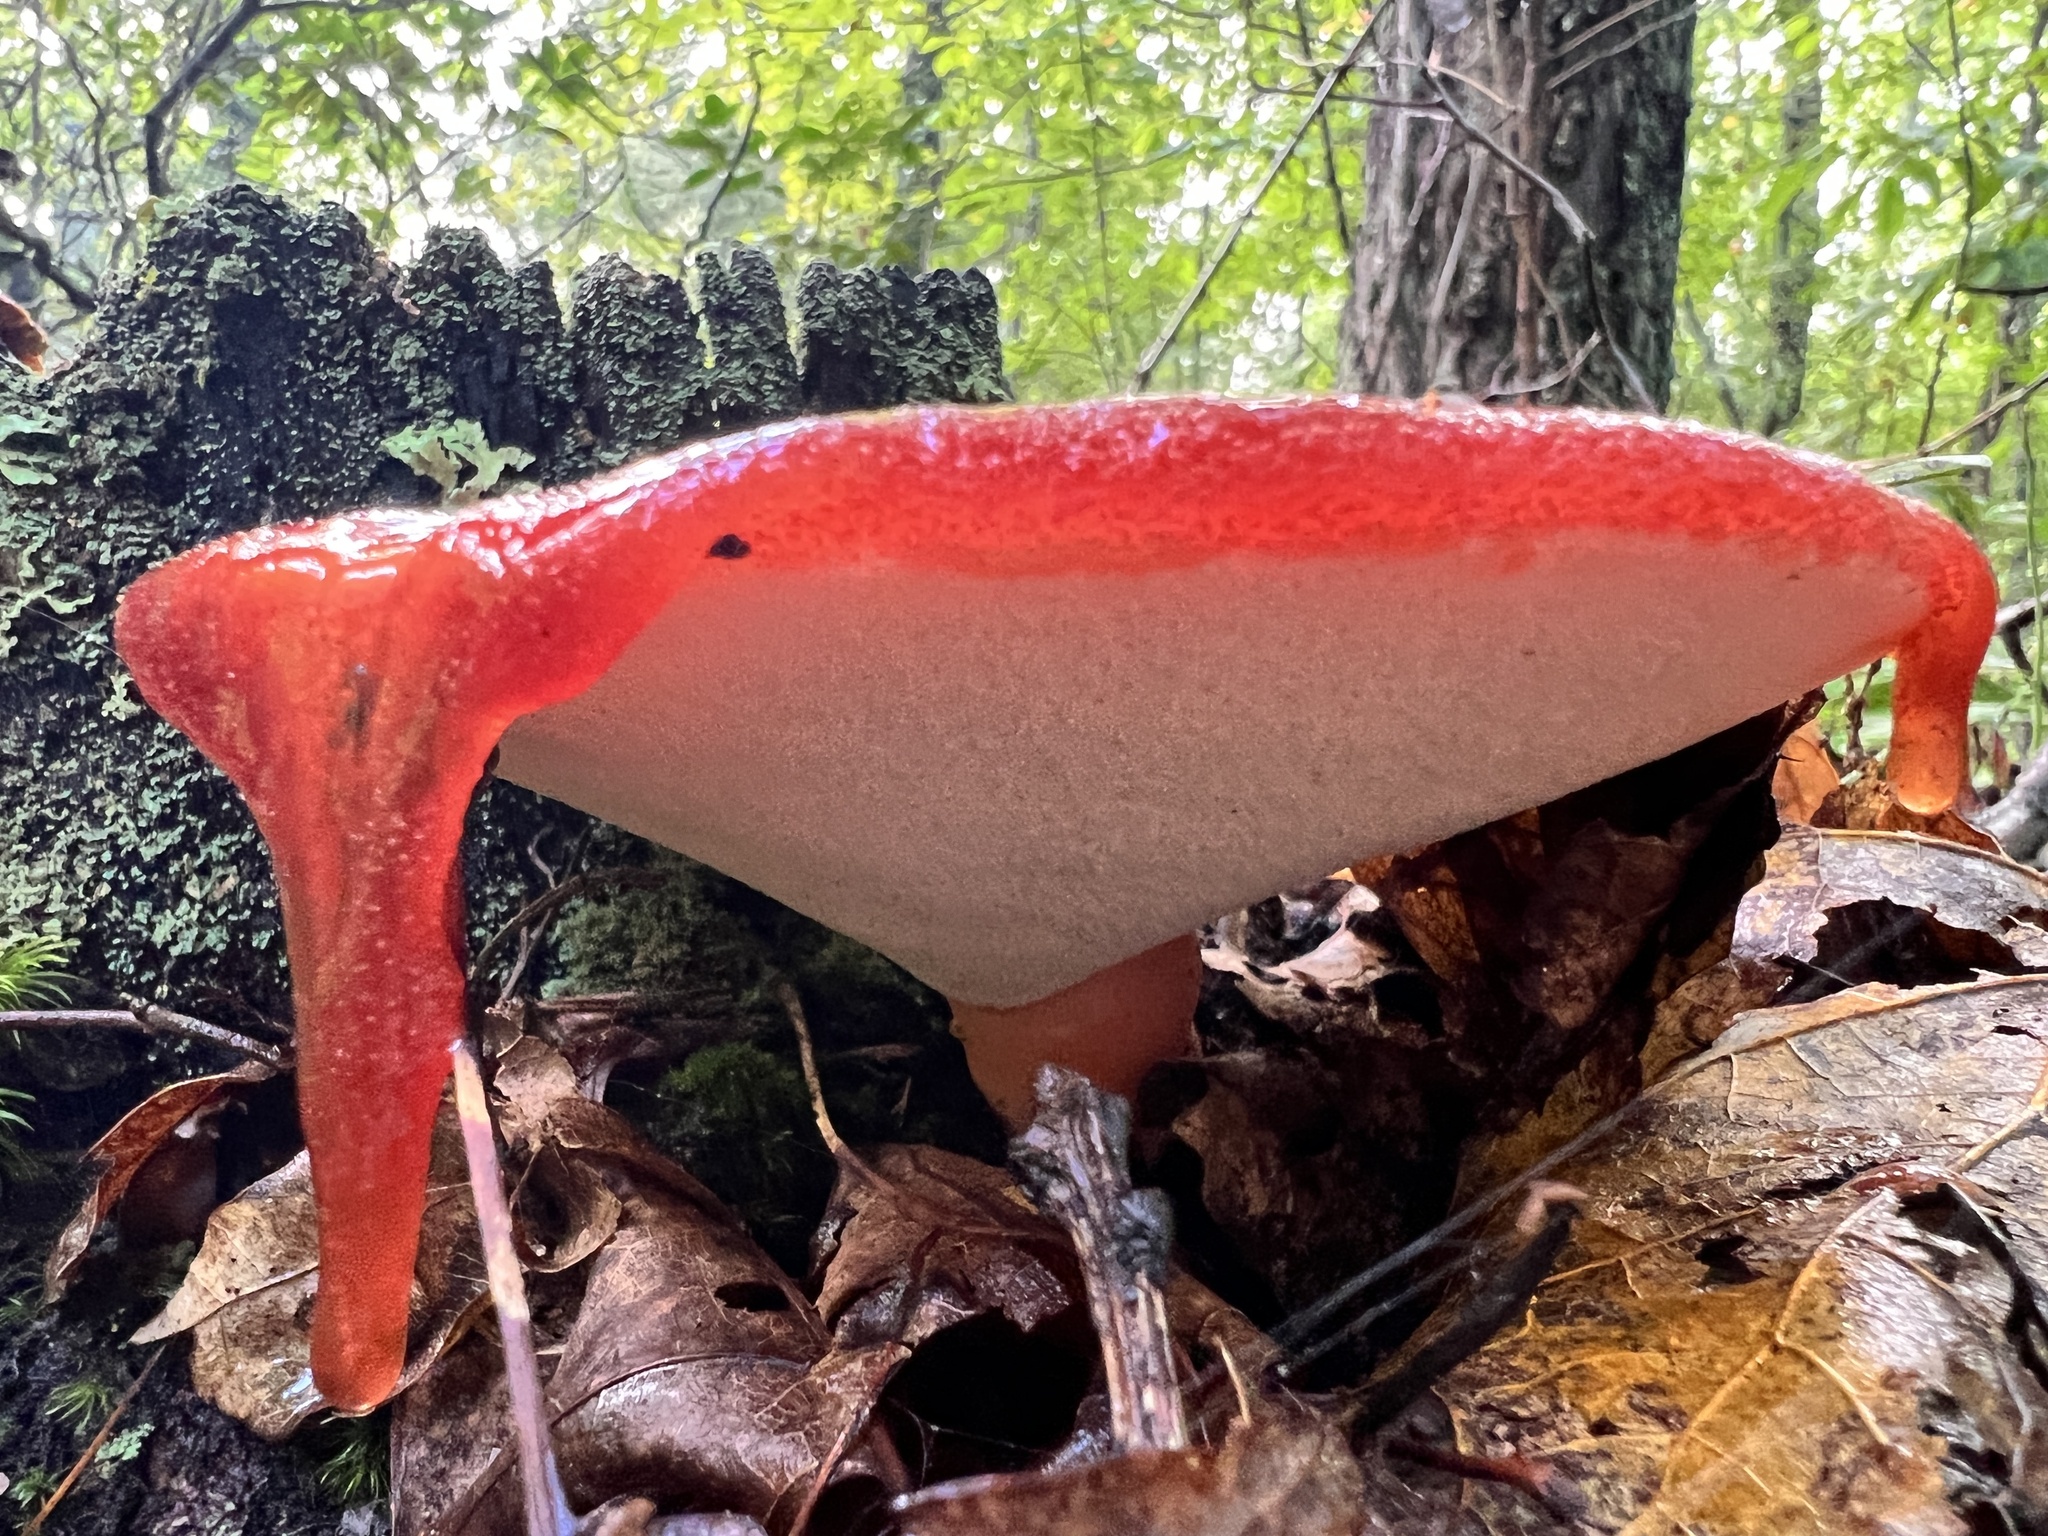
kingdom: Fungi
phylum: Basidiomycota
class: Agaricomycetes
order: Agaricales
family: Fistulinaceae
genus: Fistulina
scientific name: Fistulina hepatica
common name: Beef-steak fungus
